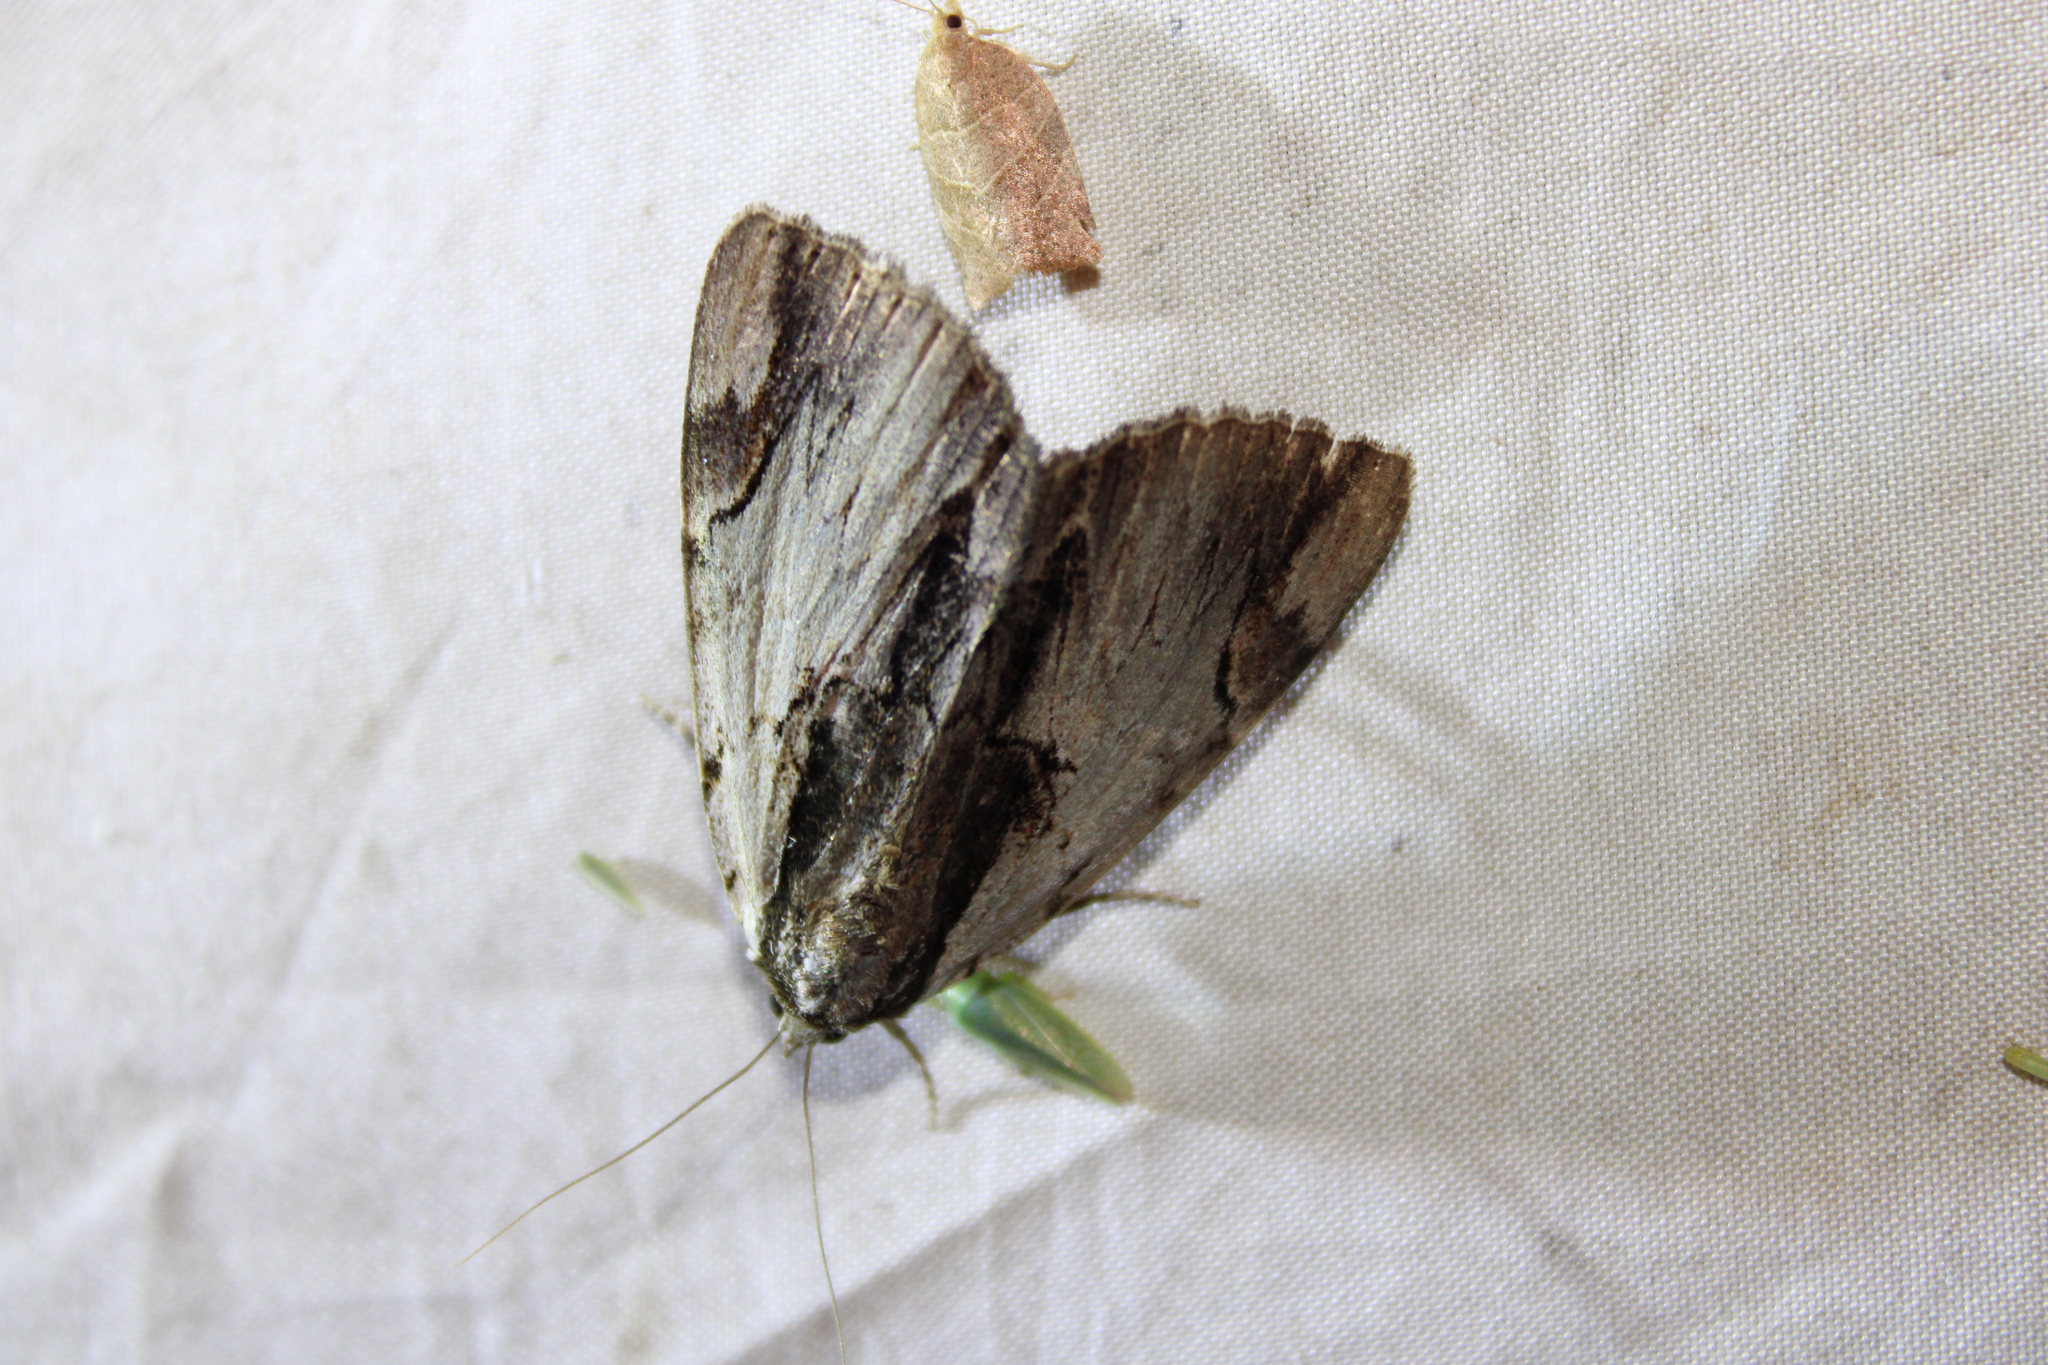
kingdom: Animalia
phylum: Arthropoda
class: Insecta
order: Lepidoptera
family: Erebidae
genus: Catocala
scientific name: Catocala ultronia
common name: Ultronia underwing
